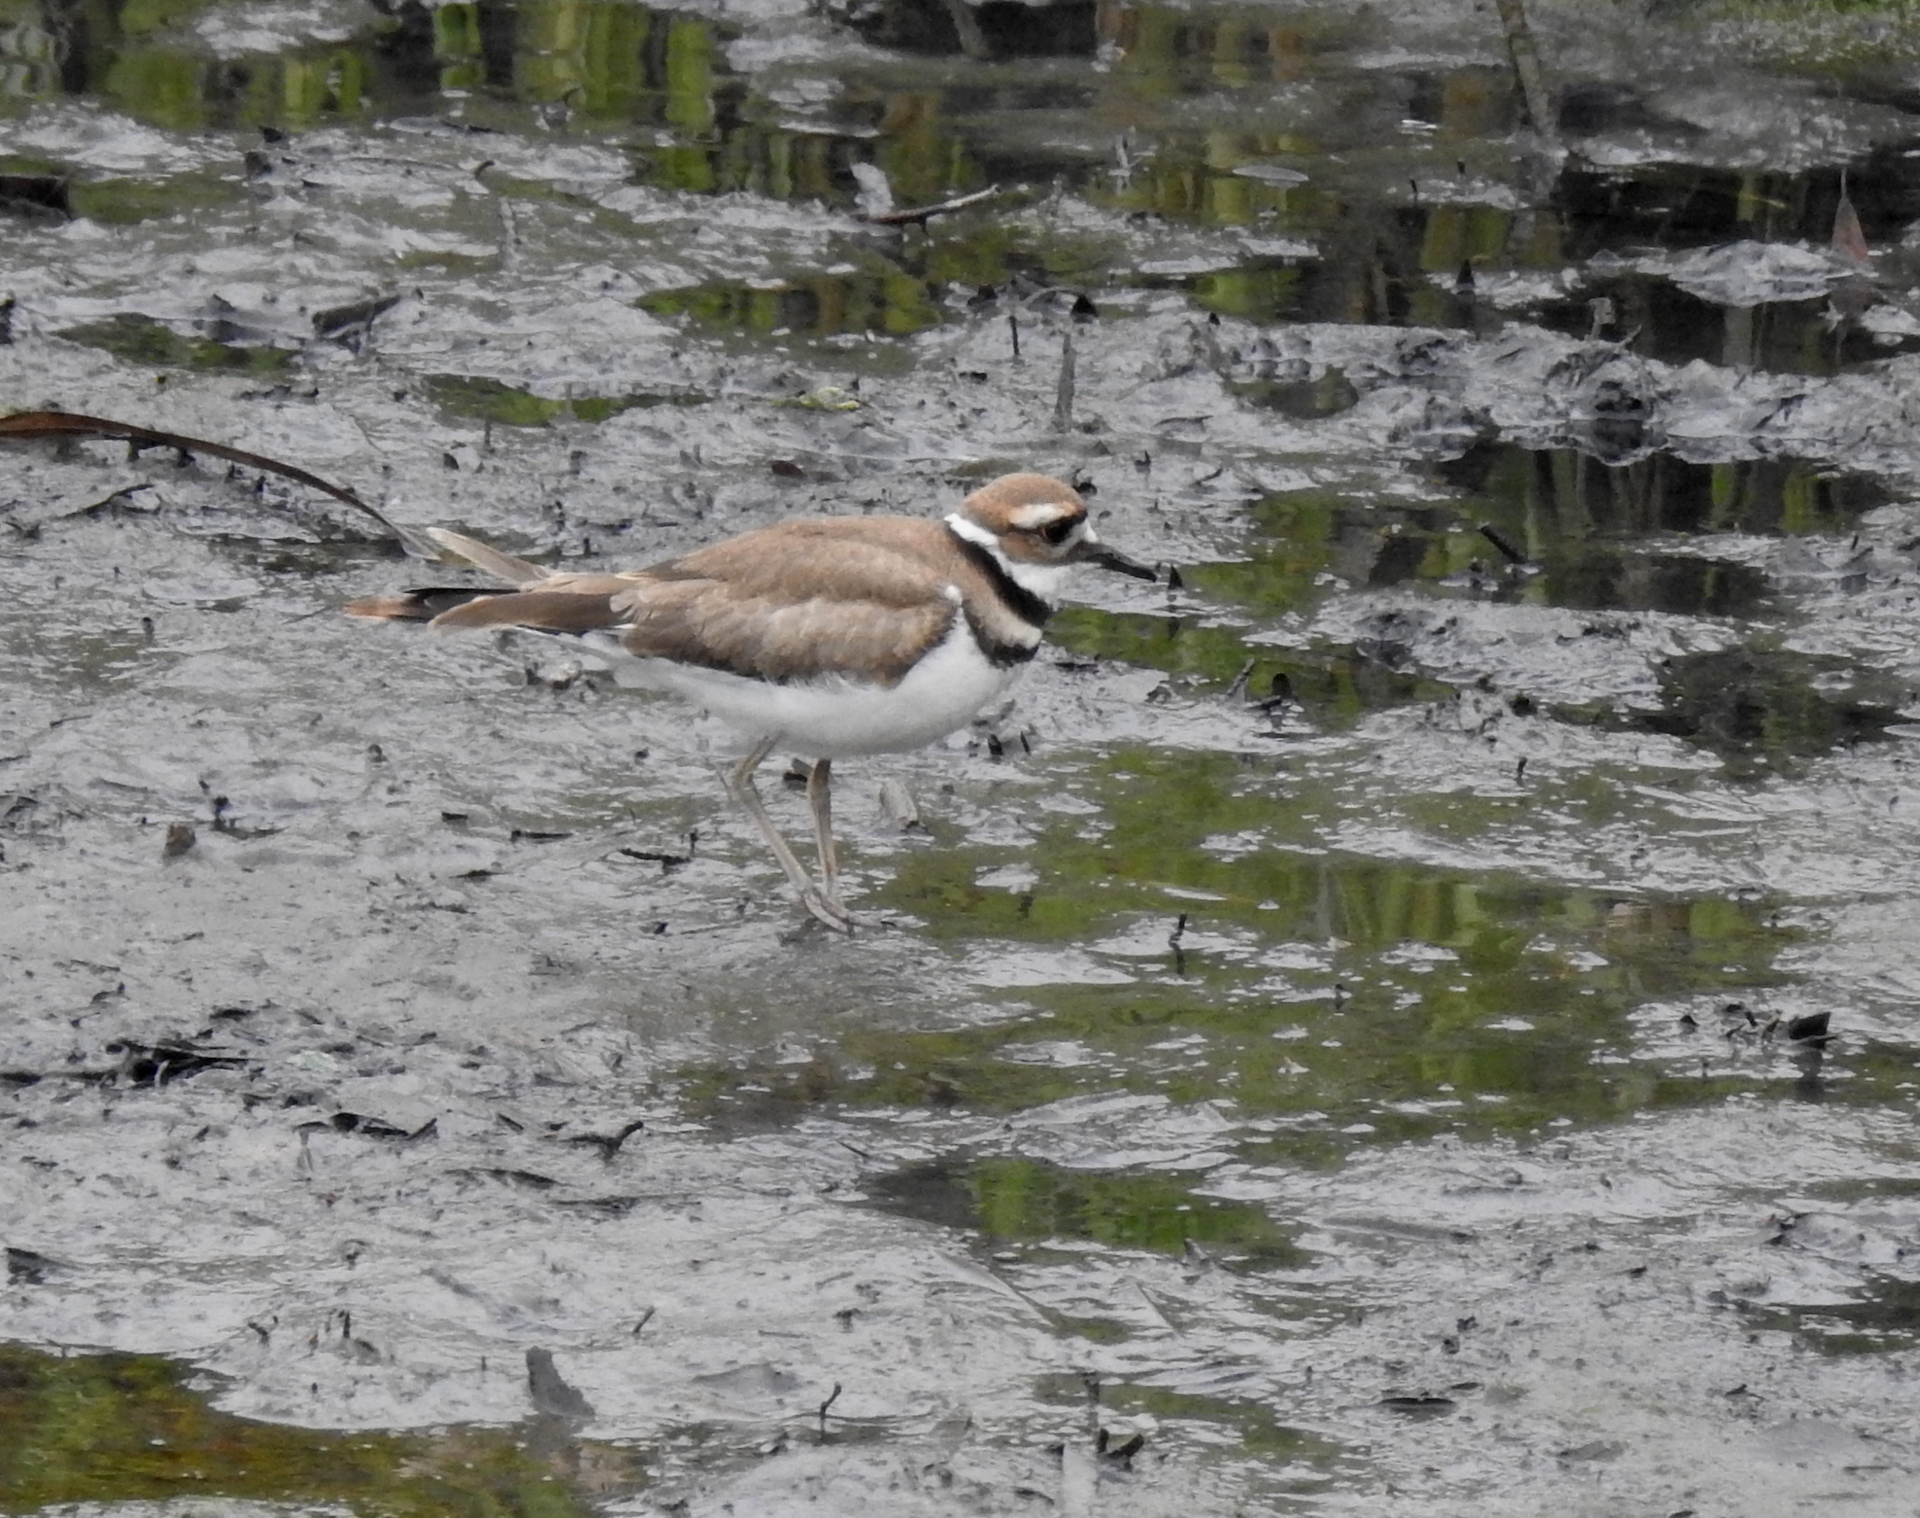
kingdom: Animalia
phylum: Chordata
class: Aves
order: Charadriiformes
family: Charadriidae
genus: Charadrius
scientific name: Charadrius vociferus
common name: Killdeer
